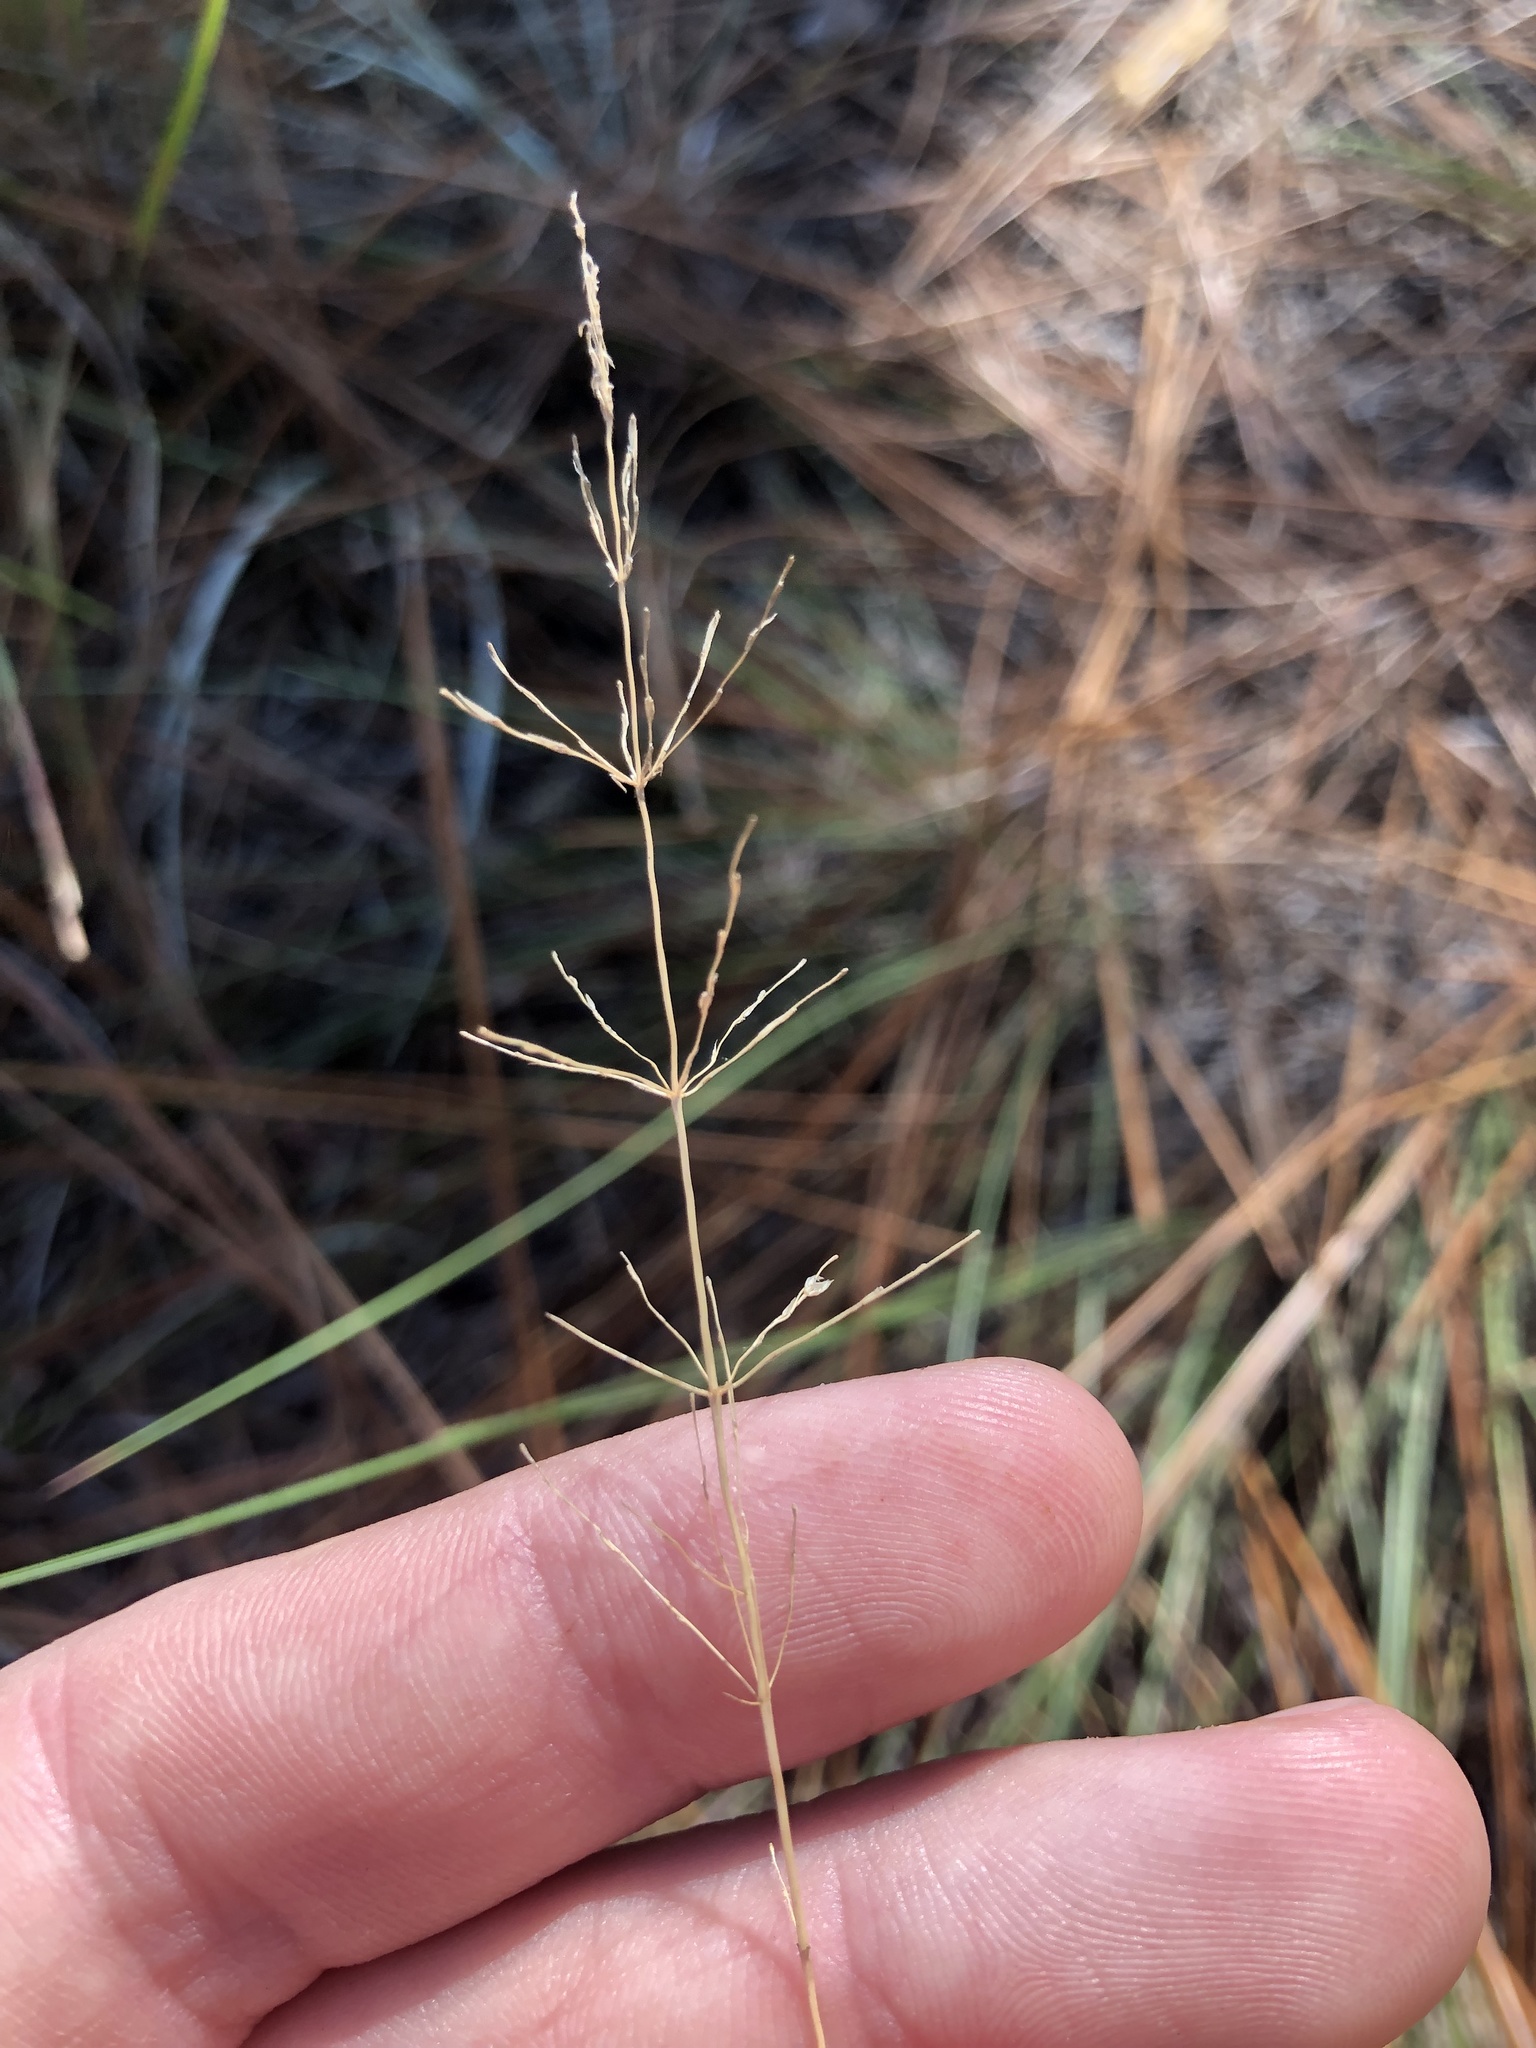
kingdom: Plantae
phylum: Tracheophyta
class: Liliopsida
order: Poales
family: Poaceae
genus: Sporobolus
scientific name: Sporobolus junceus
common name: Lizard grass
